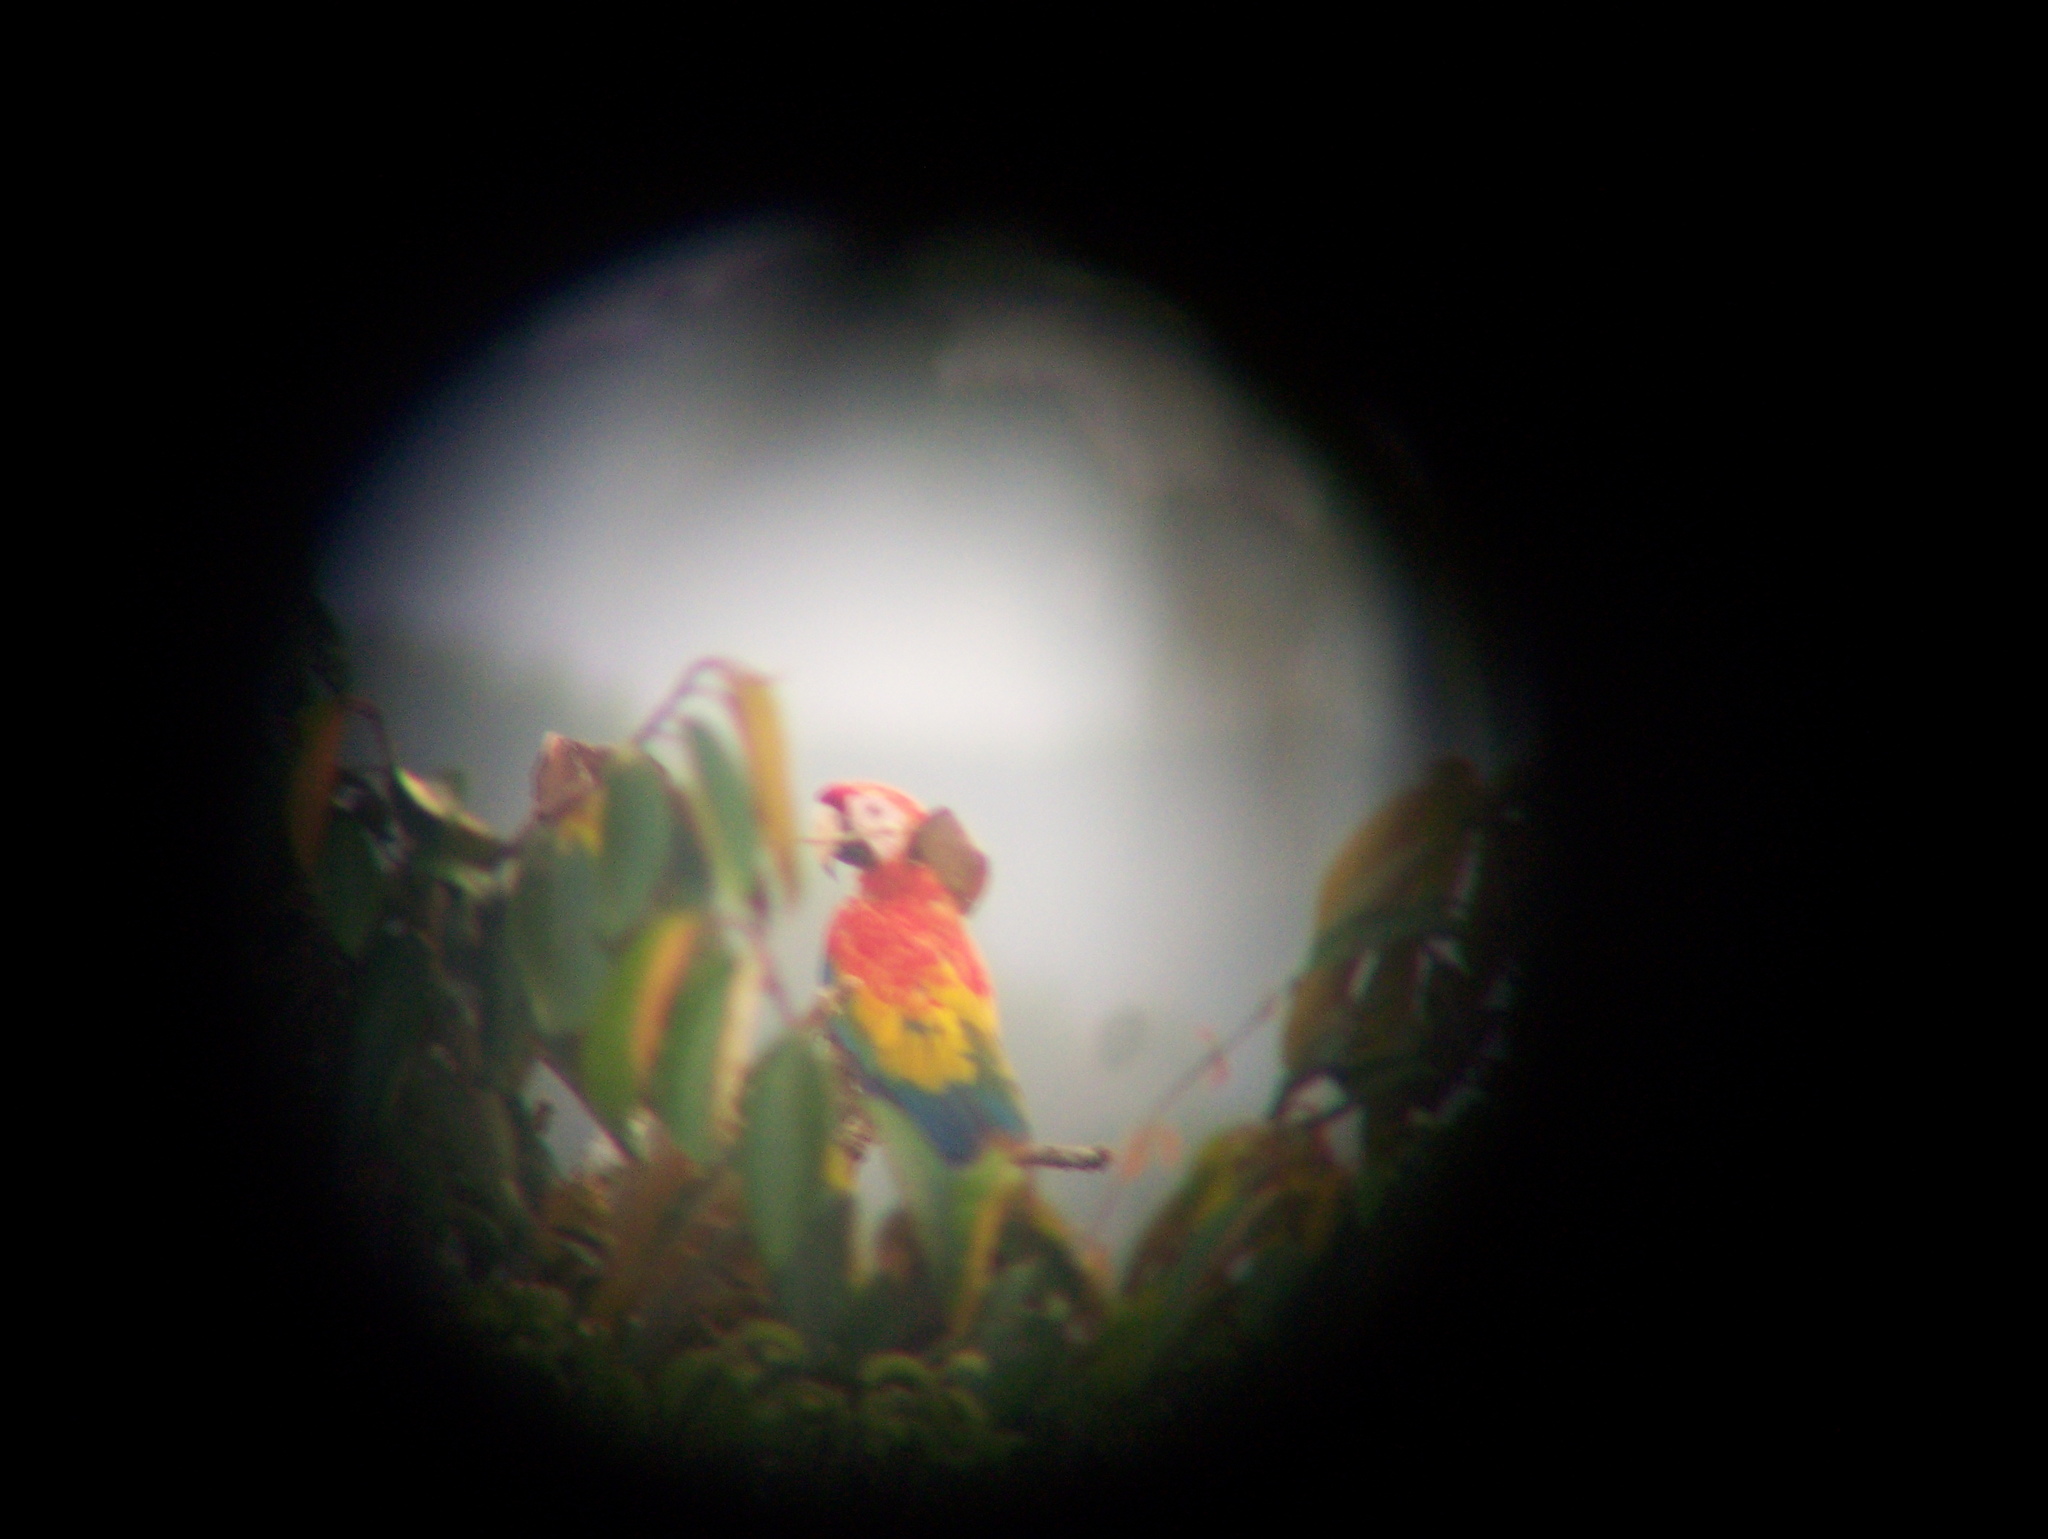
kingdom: Animalia
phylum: Chordata
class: Aves
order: Psittaciformes
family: Psittacidae
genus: Ara
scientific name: Ara macao
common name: Scarlet macaw
